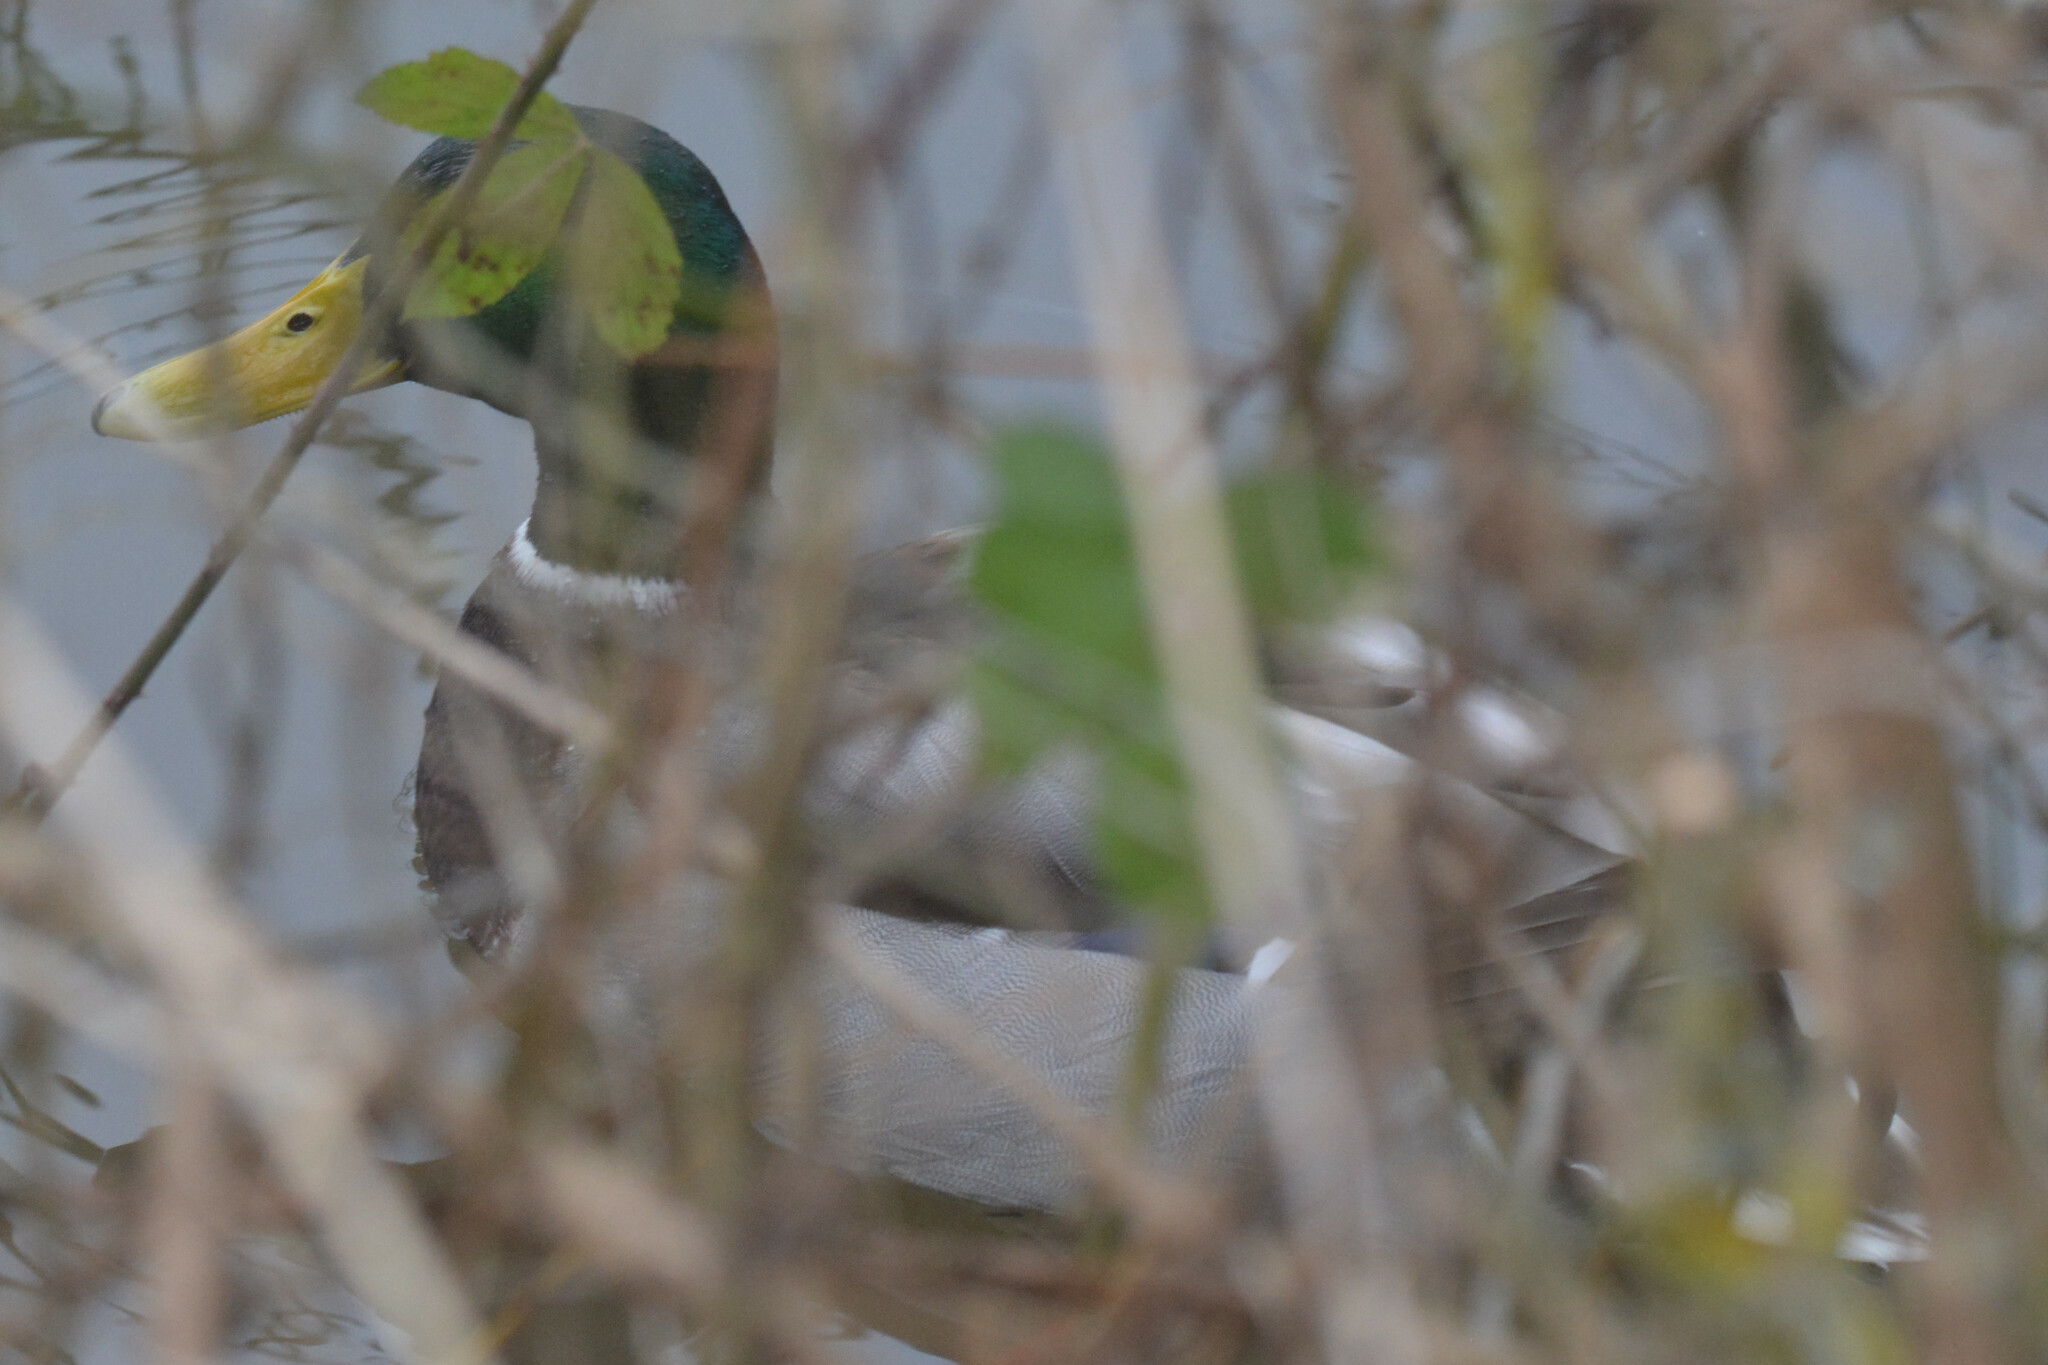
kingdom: Animalia
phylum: Chordata
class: Aves
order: Anseriformes
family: Anatidae
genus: Anas
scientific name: Anas platyrhynchos
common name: Mallard
